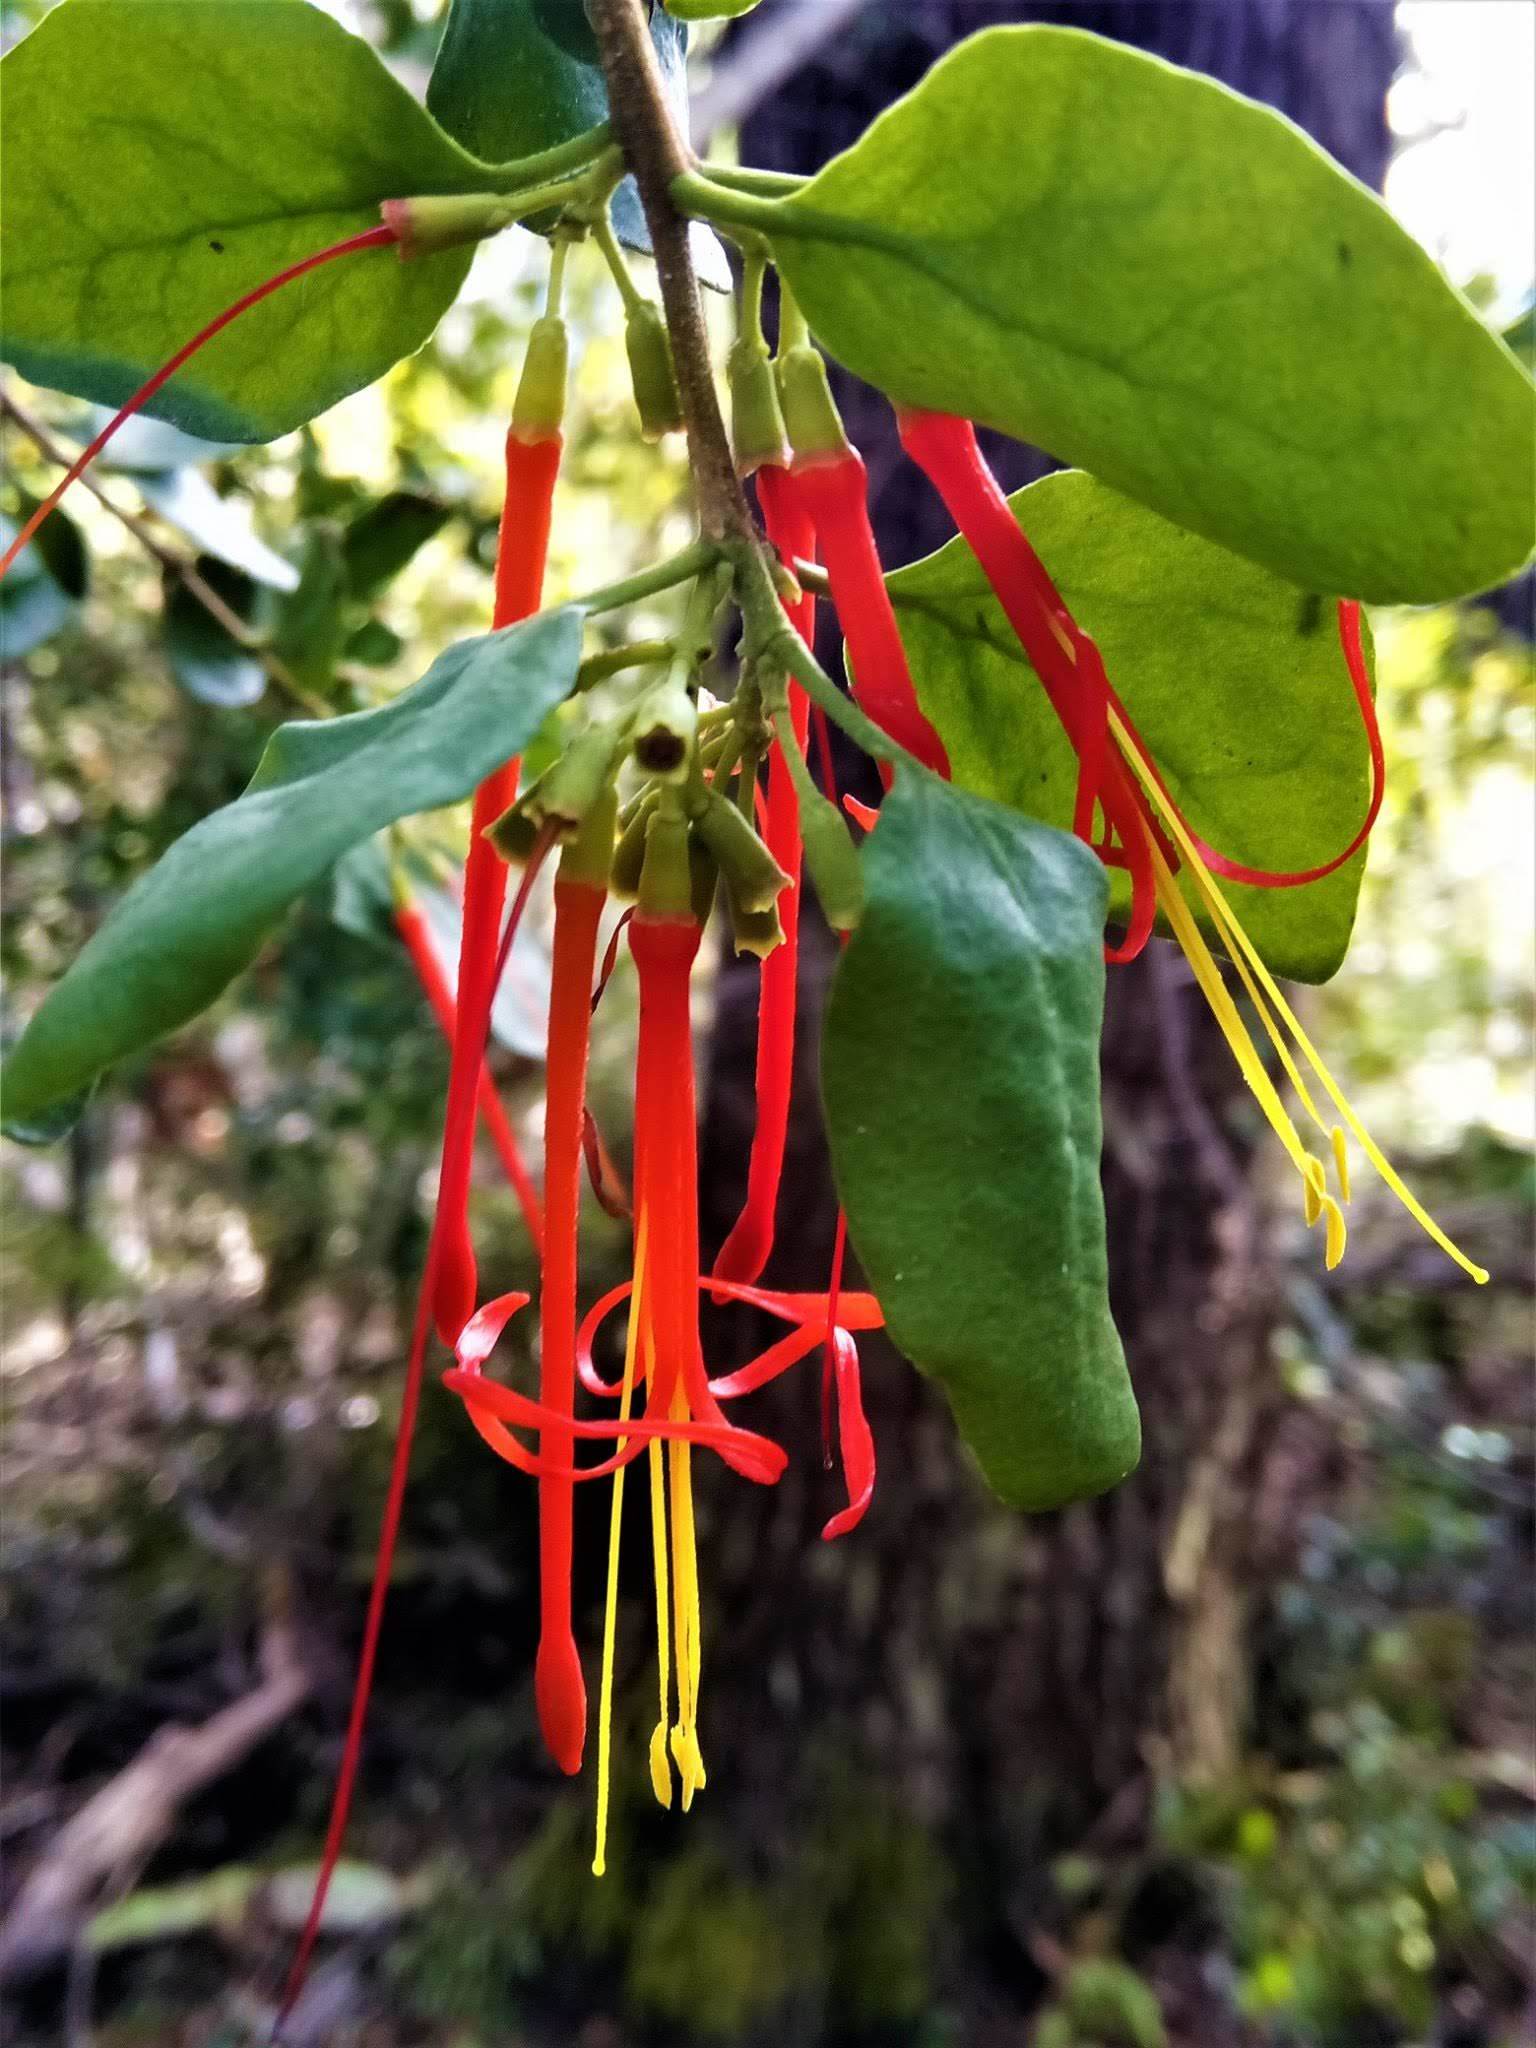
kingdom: Plantae
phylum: Tracheophyta
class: Magnoliopsida
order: Santalales
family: Loranthaceae
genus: Tristerix
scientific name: Tristerix corymbosus
